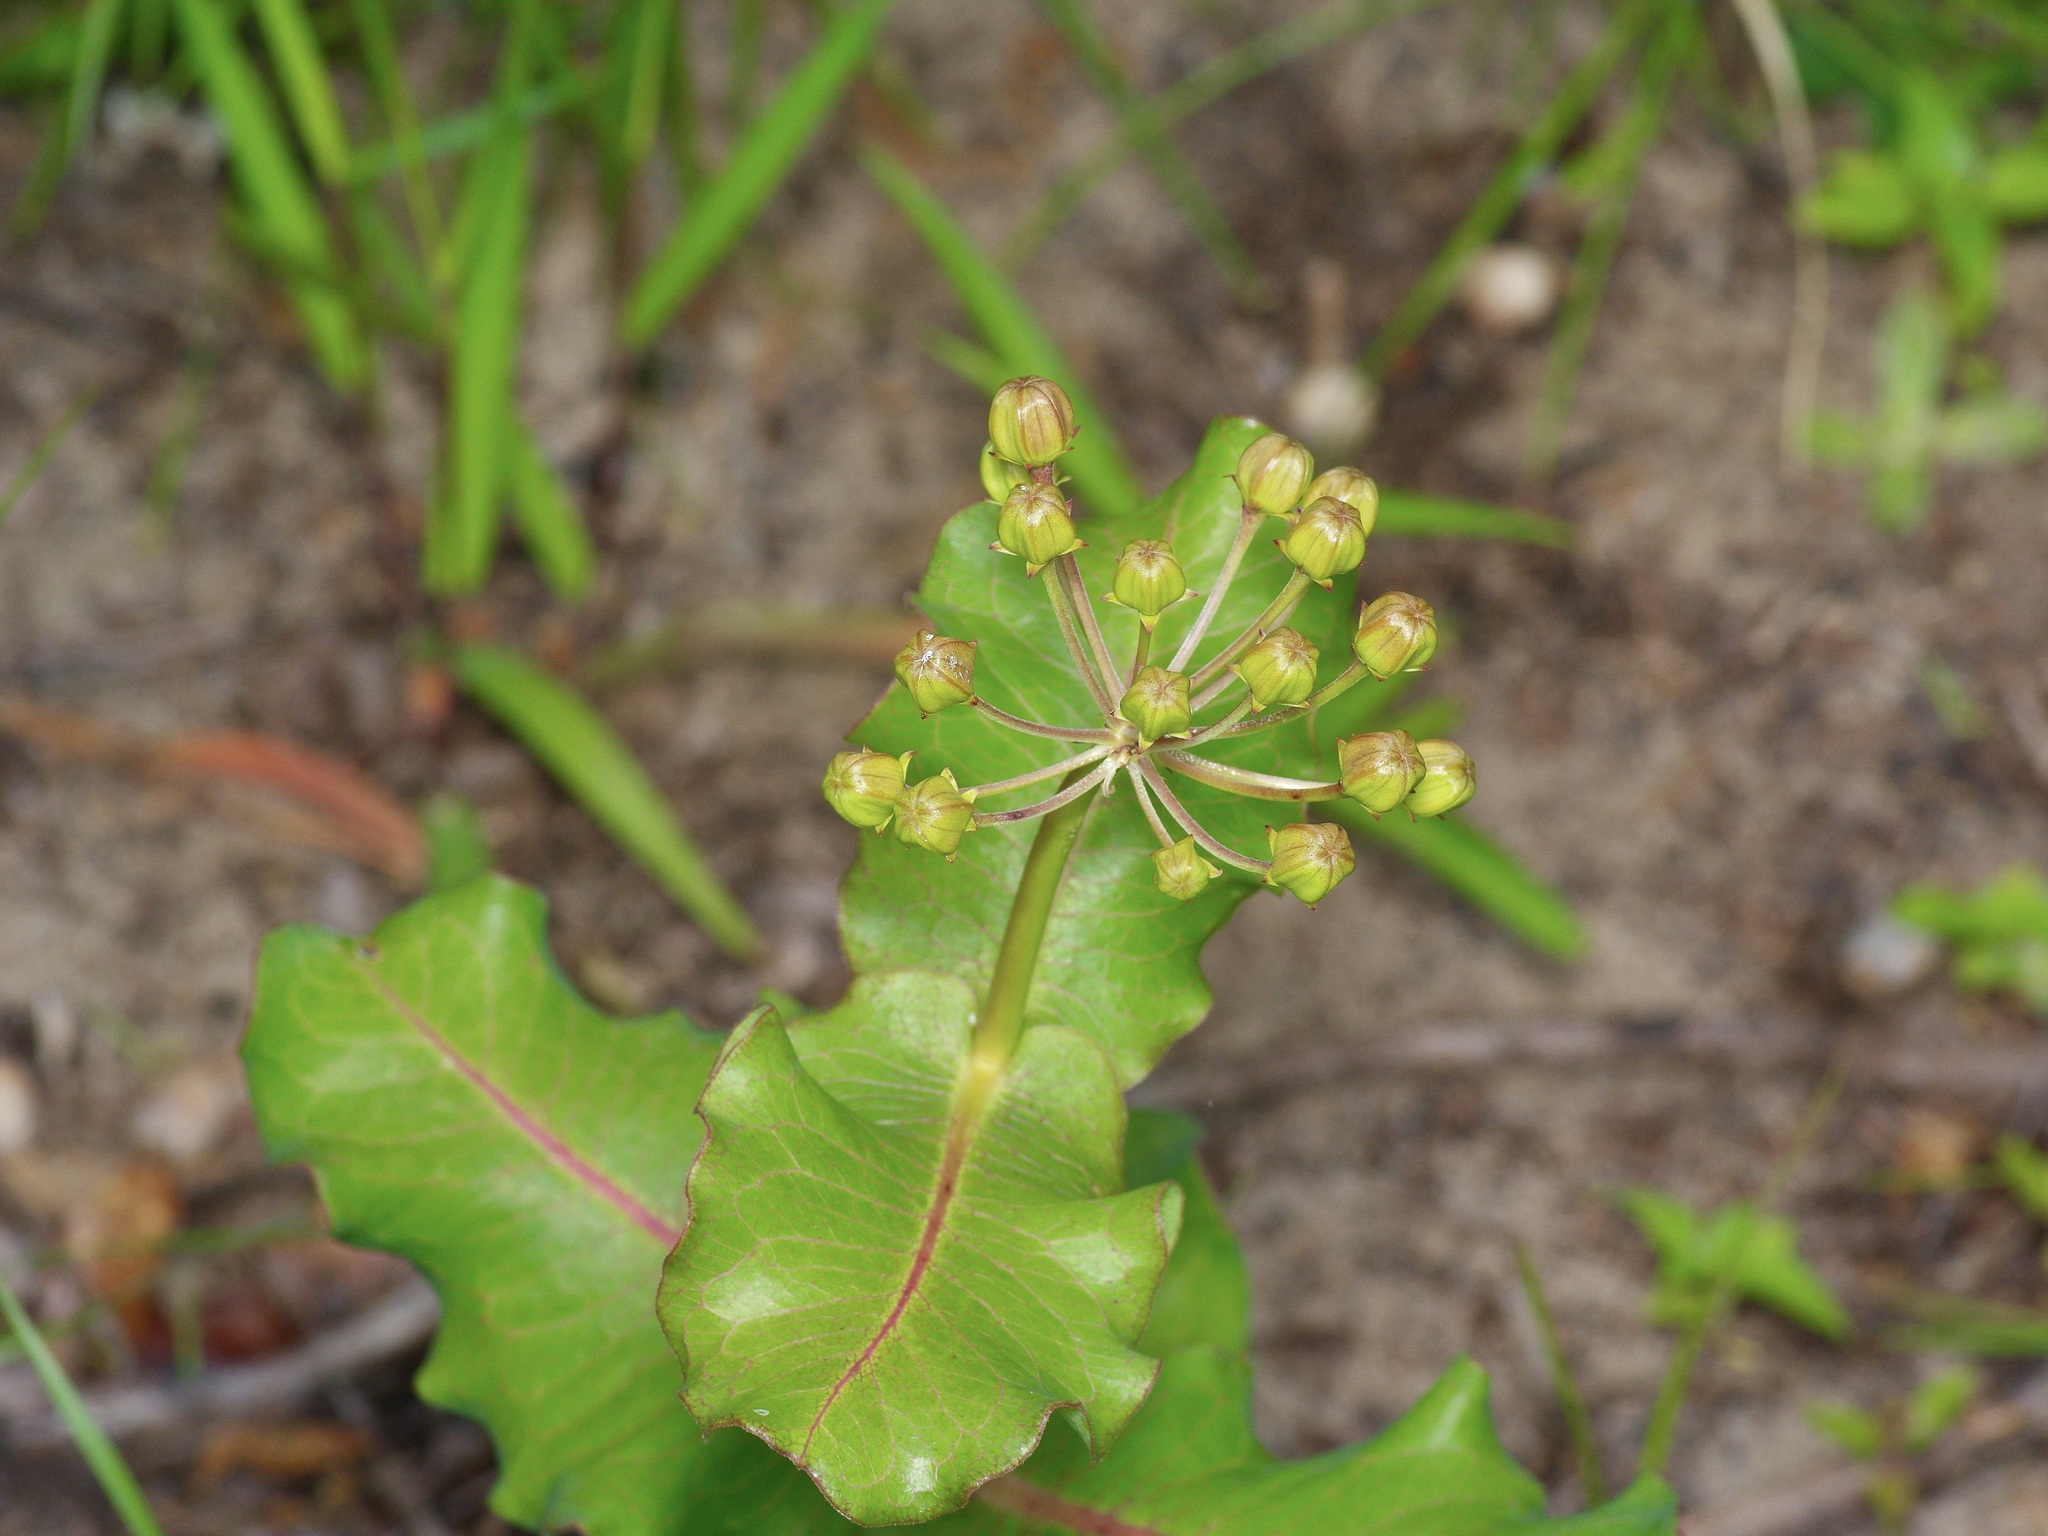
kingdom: Plantae
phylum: Tracheophyta
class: Magnoliopsida
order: Gentianales
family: Apocynaceae
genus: Asclepias
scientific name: Asclepias amplexicaulis
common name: Blunt-leaf milkweed
